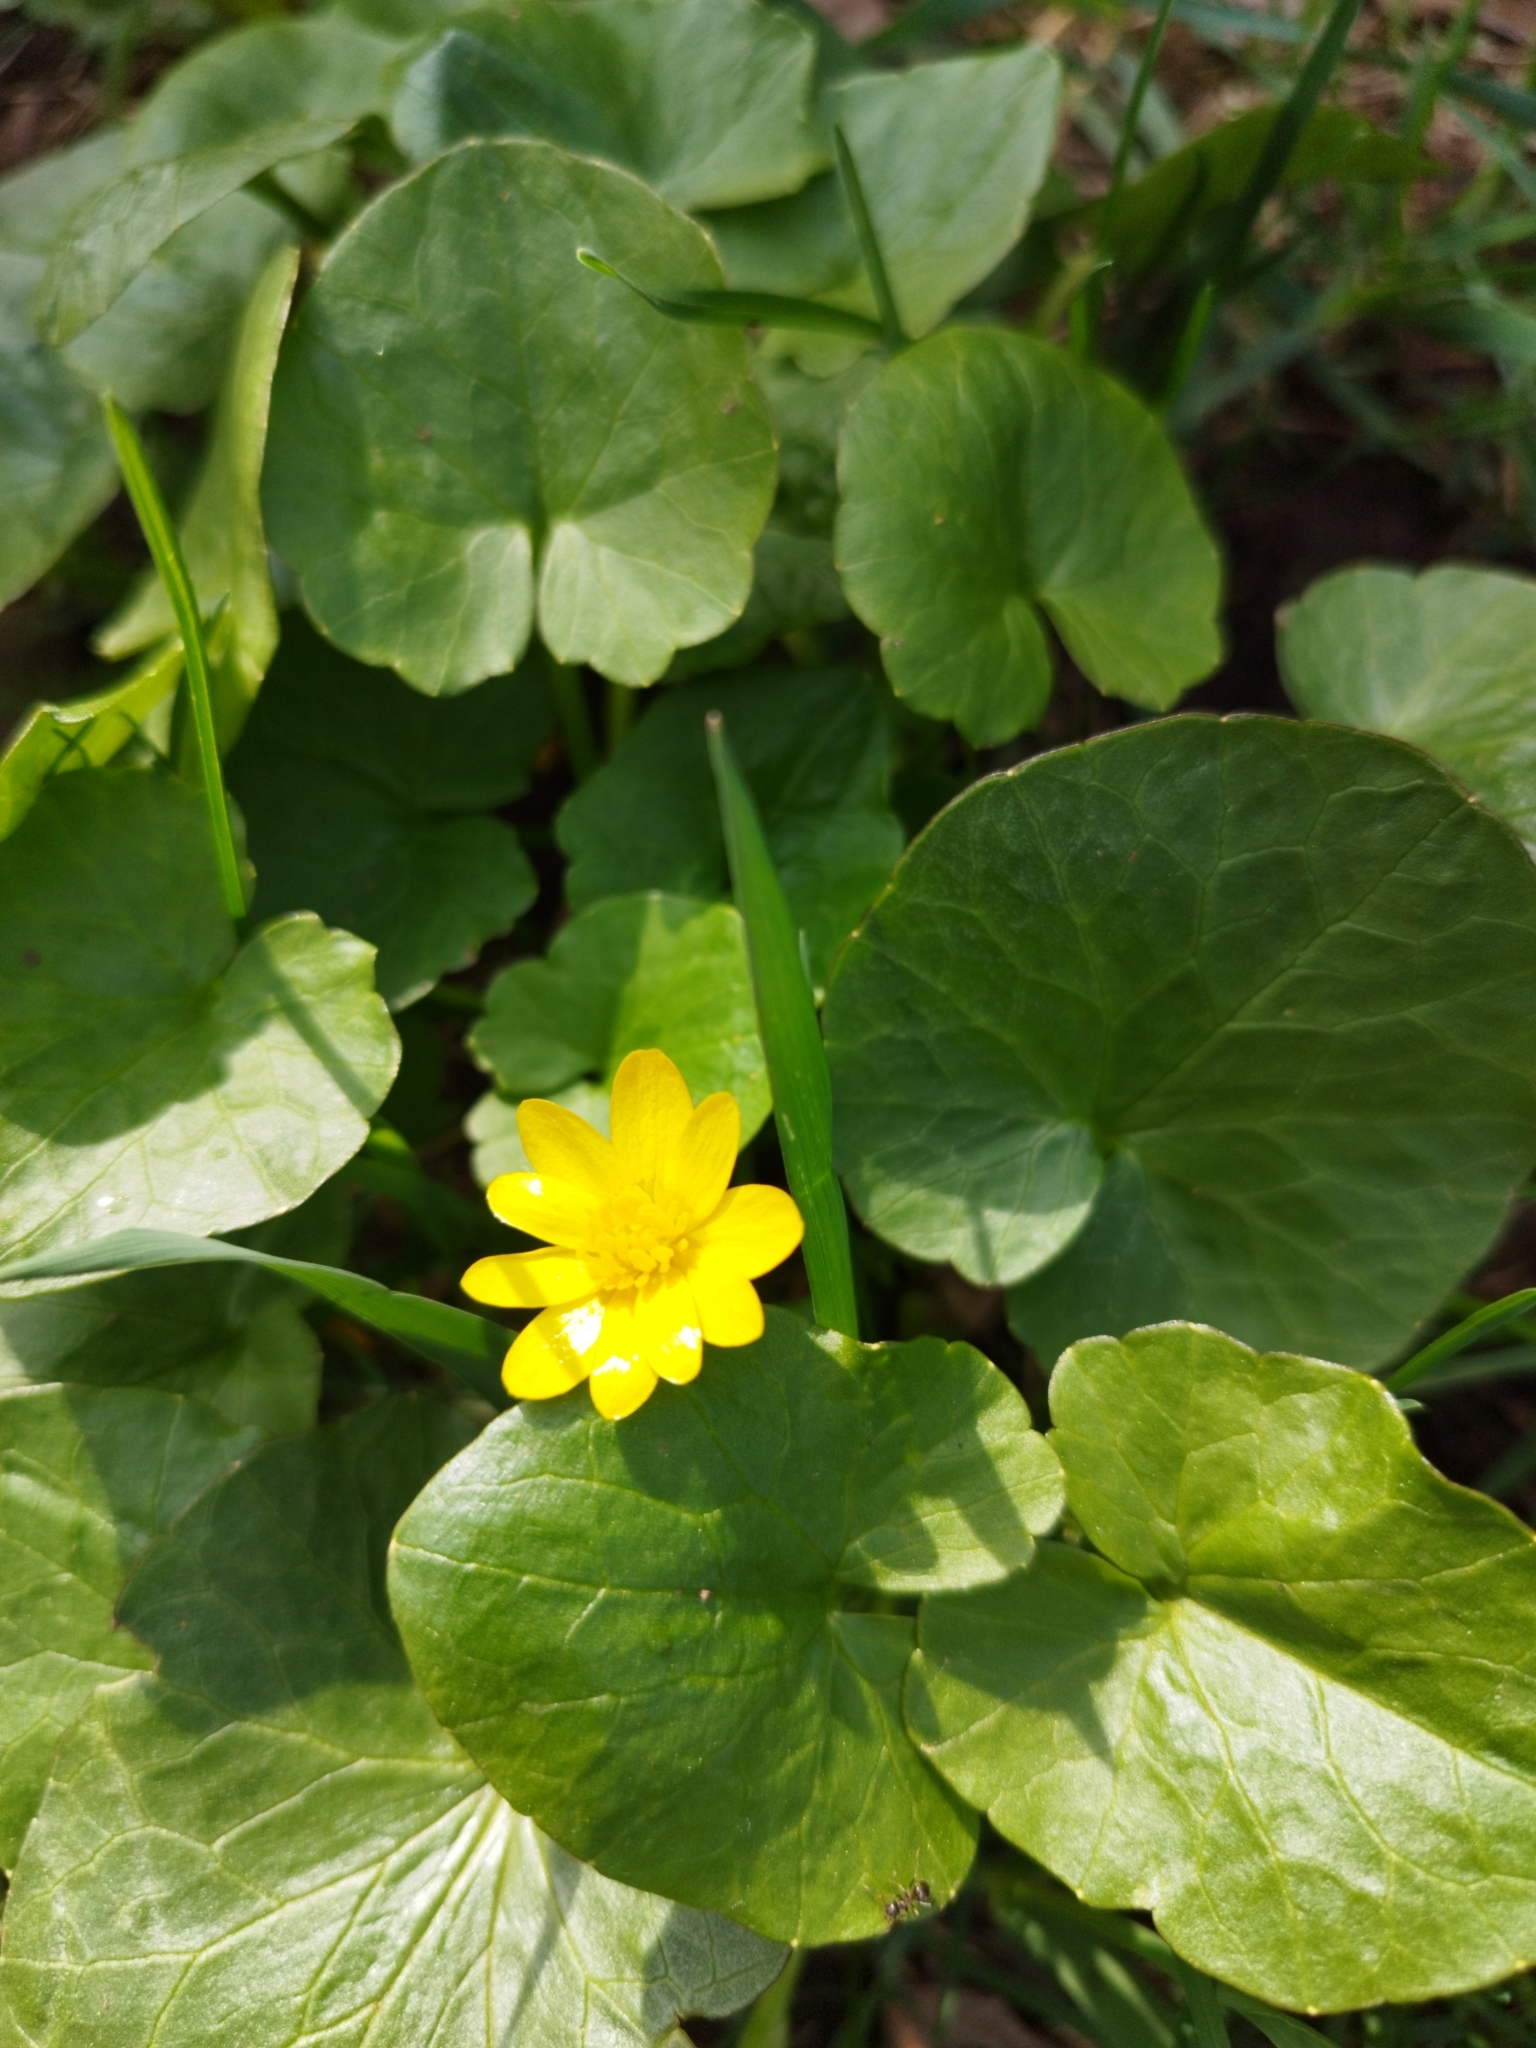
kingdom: Plantae
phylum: Tracheophyta
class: Magnoliopsida
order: Ranunculales
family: Ranunculaceae
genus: Ficaria
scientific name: Ficaria verna
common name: Lesser celandine
